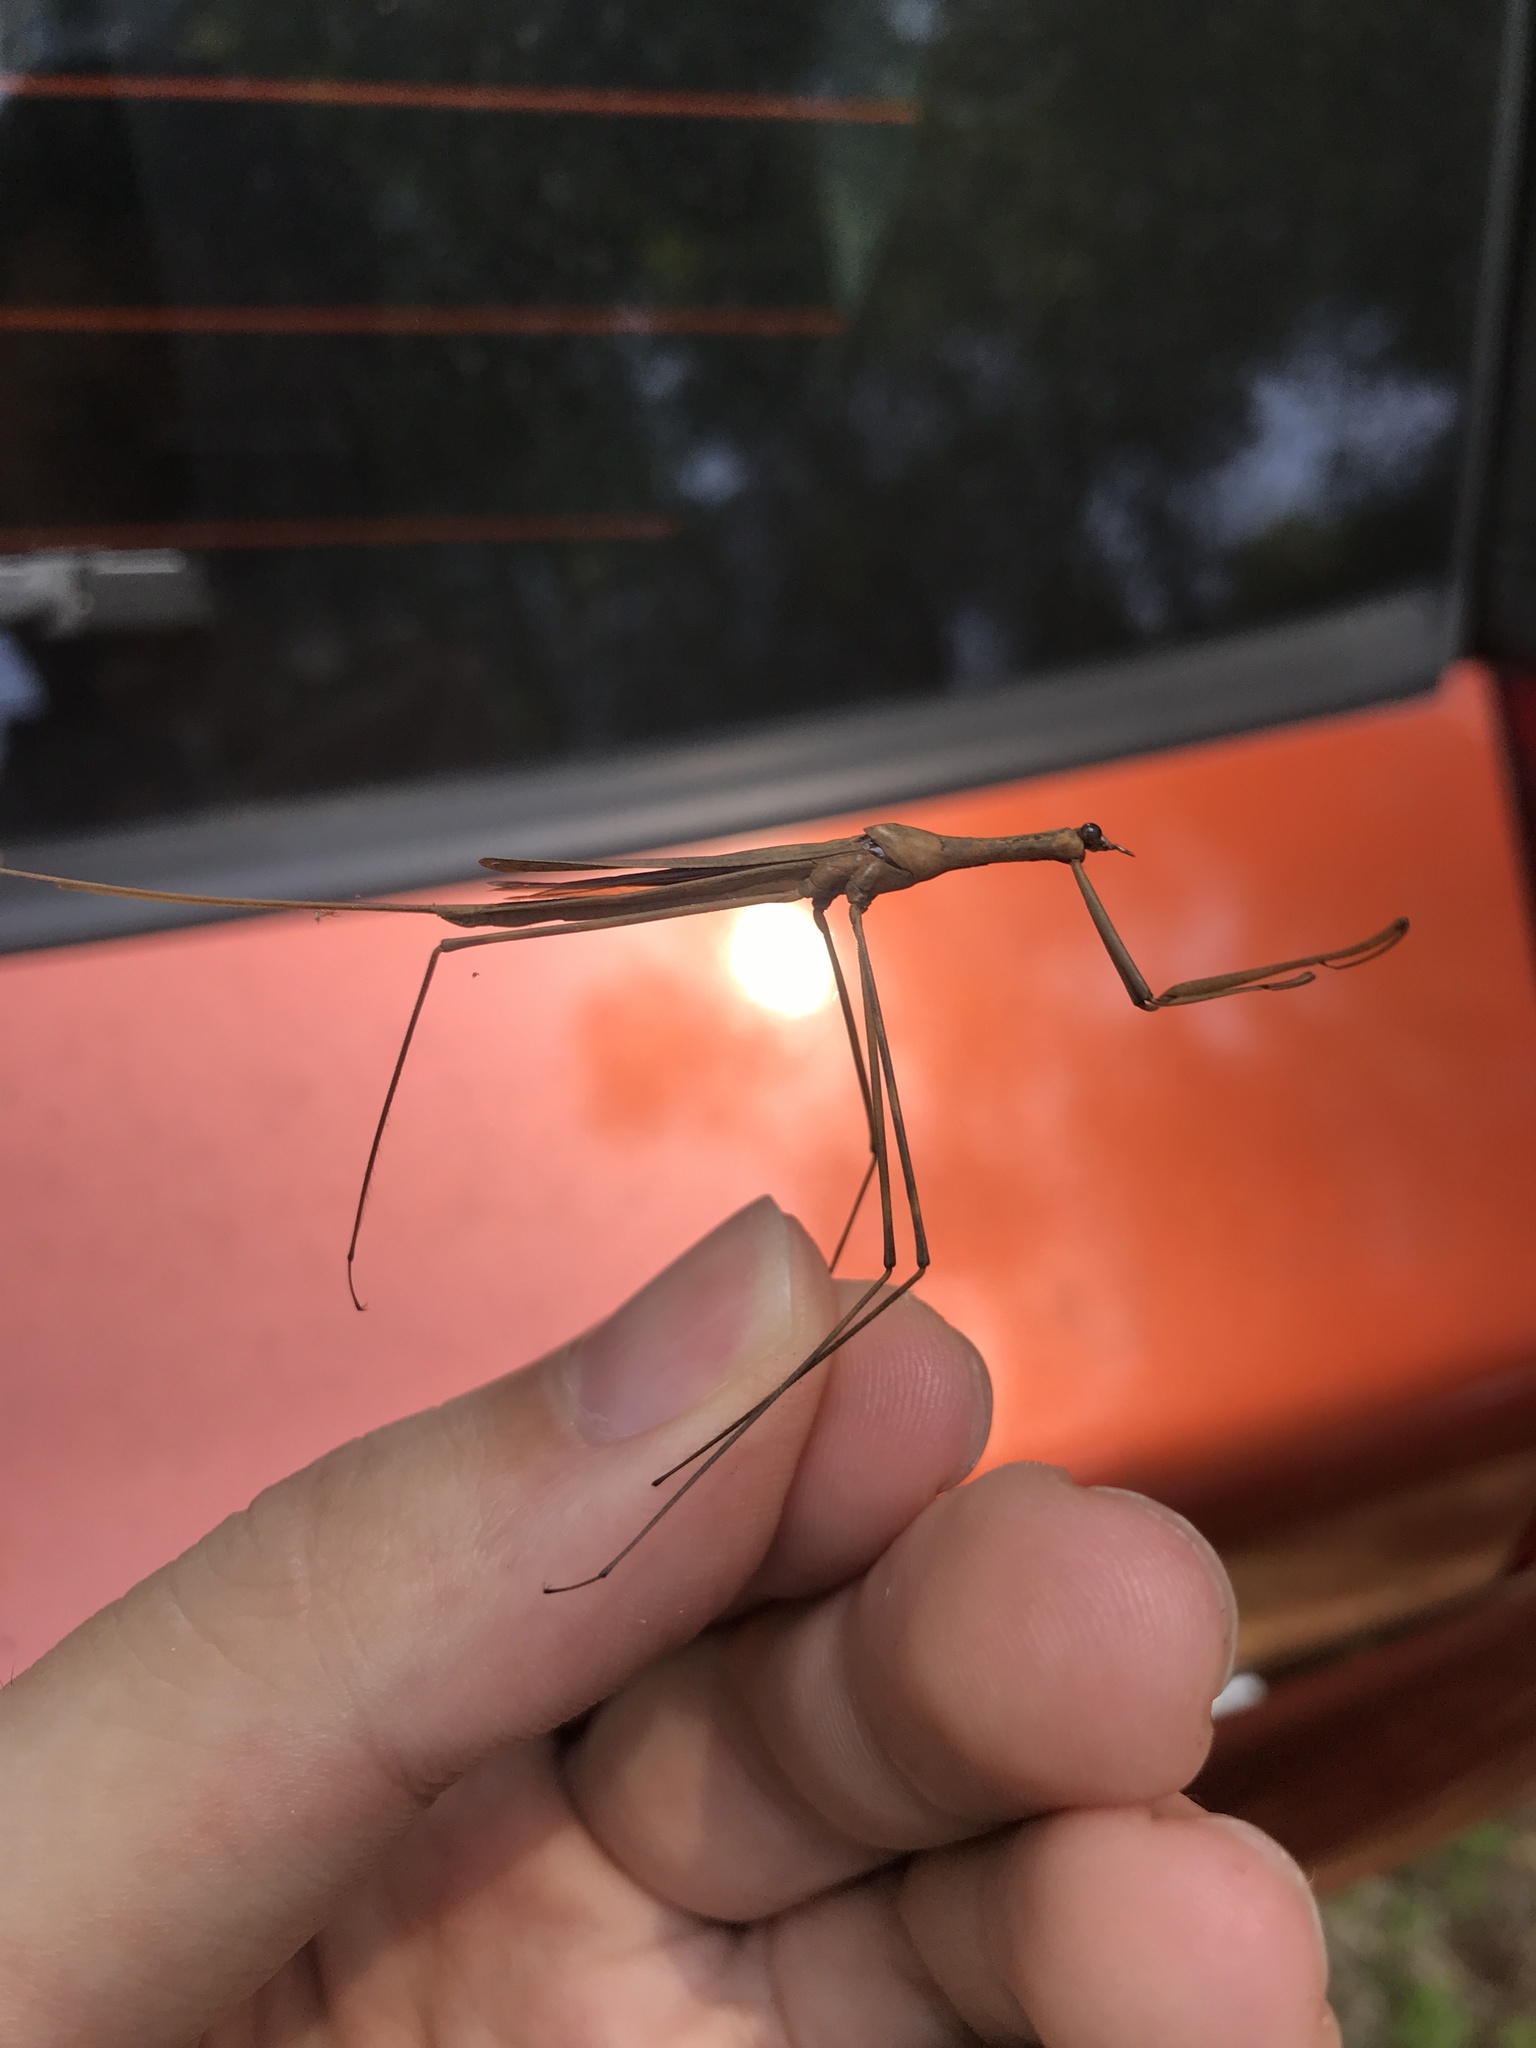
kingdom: Animalia
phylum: Arthropoda
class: Insecta
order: Hemiptera
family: Nepidae
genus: Ranatra
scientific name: Ranatra
